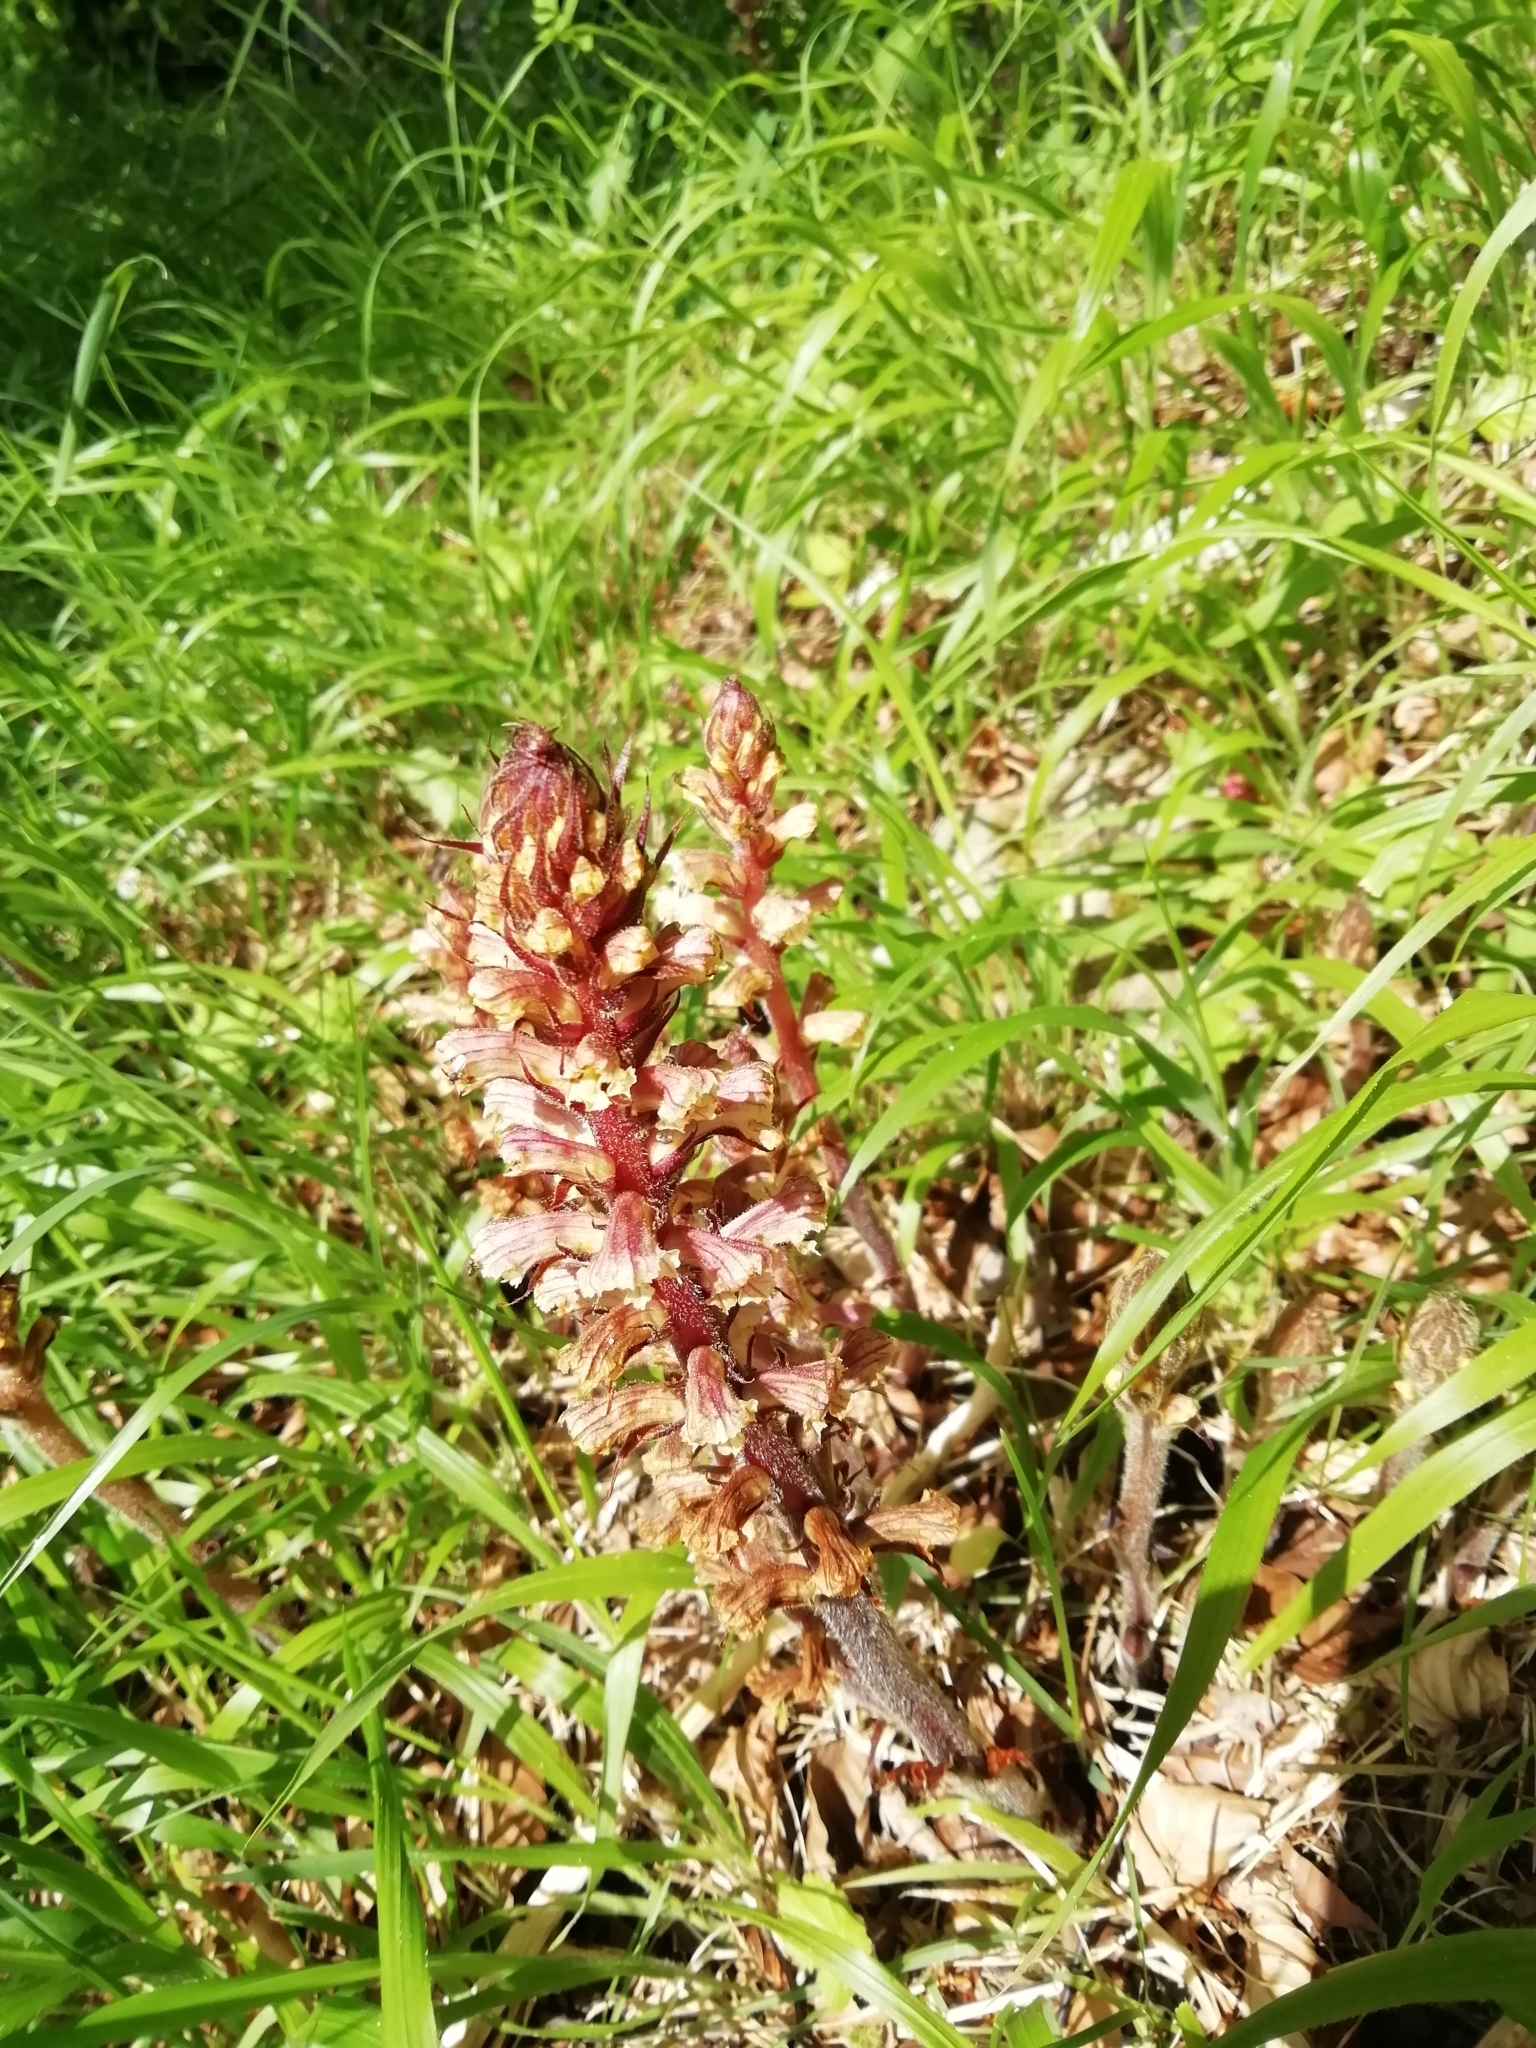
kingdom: Plantae
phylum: Tracheophyta
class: Magnoliopsida
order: Lamiales
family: Orobanchaceae
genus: Orobanche
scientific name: Orobanche hederae
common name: Ivy broomrape
